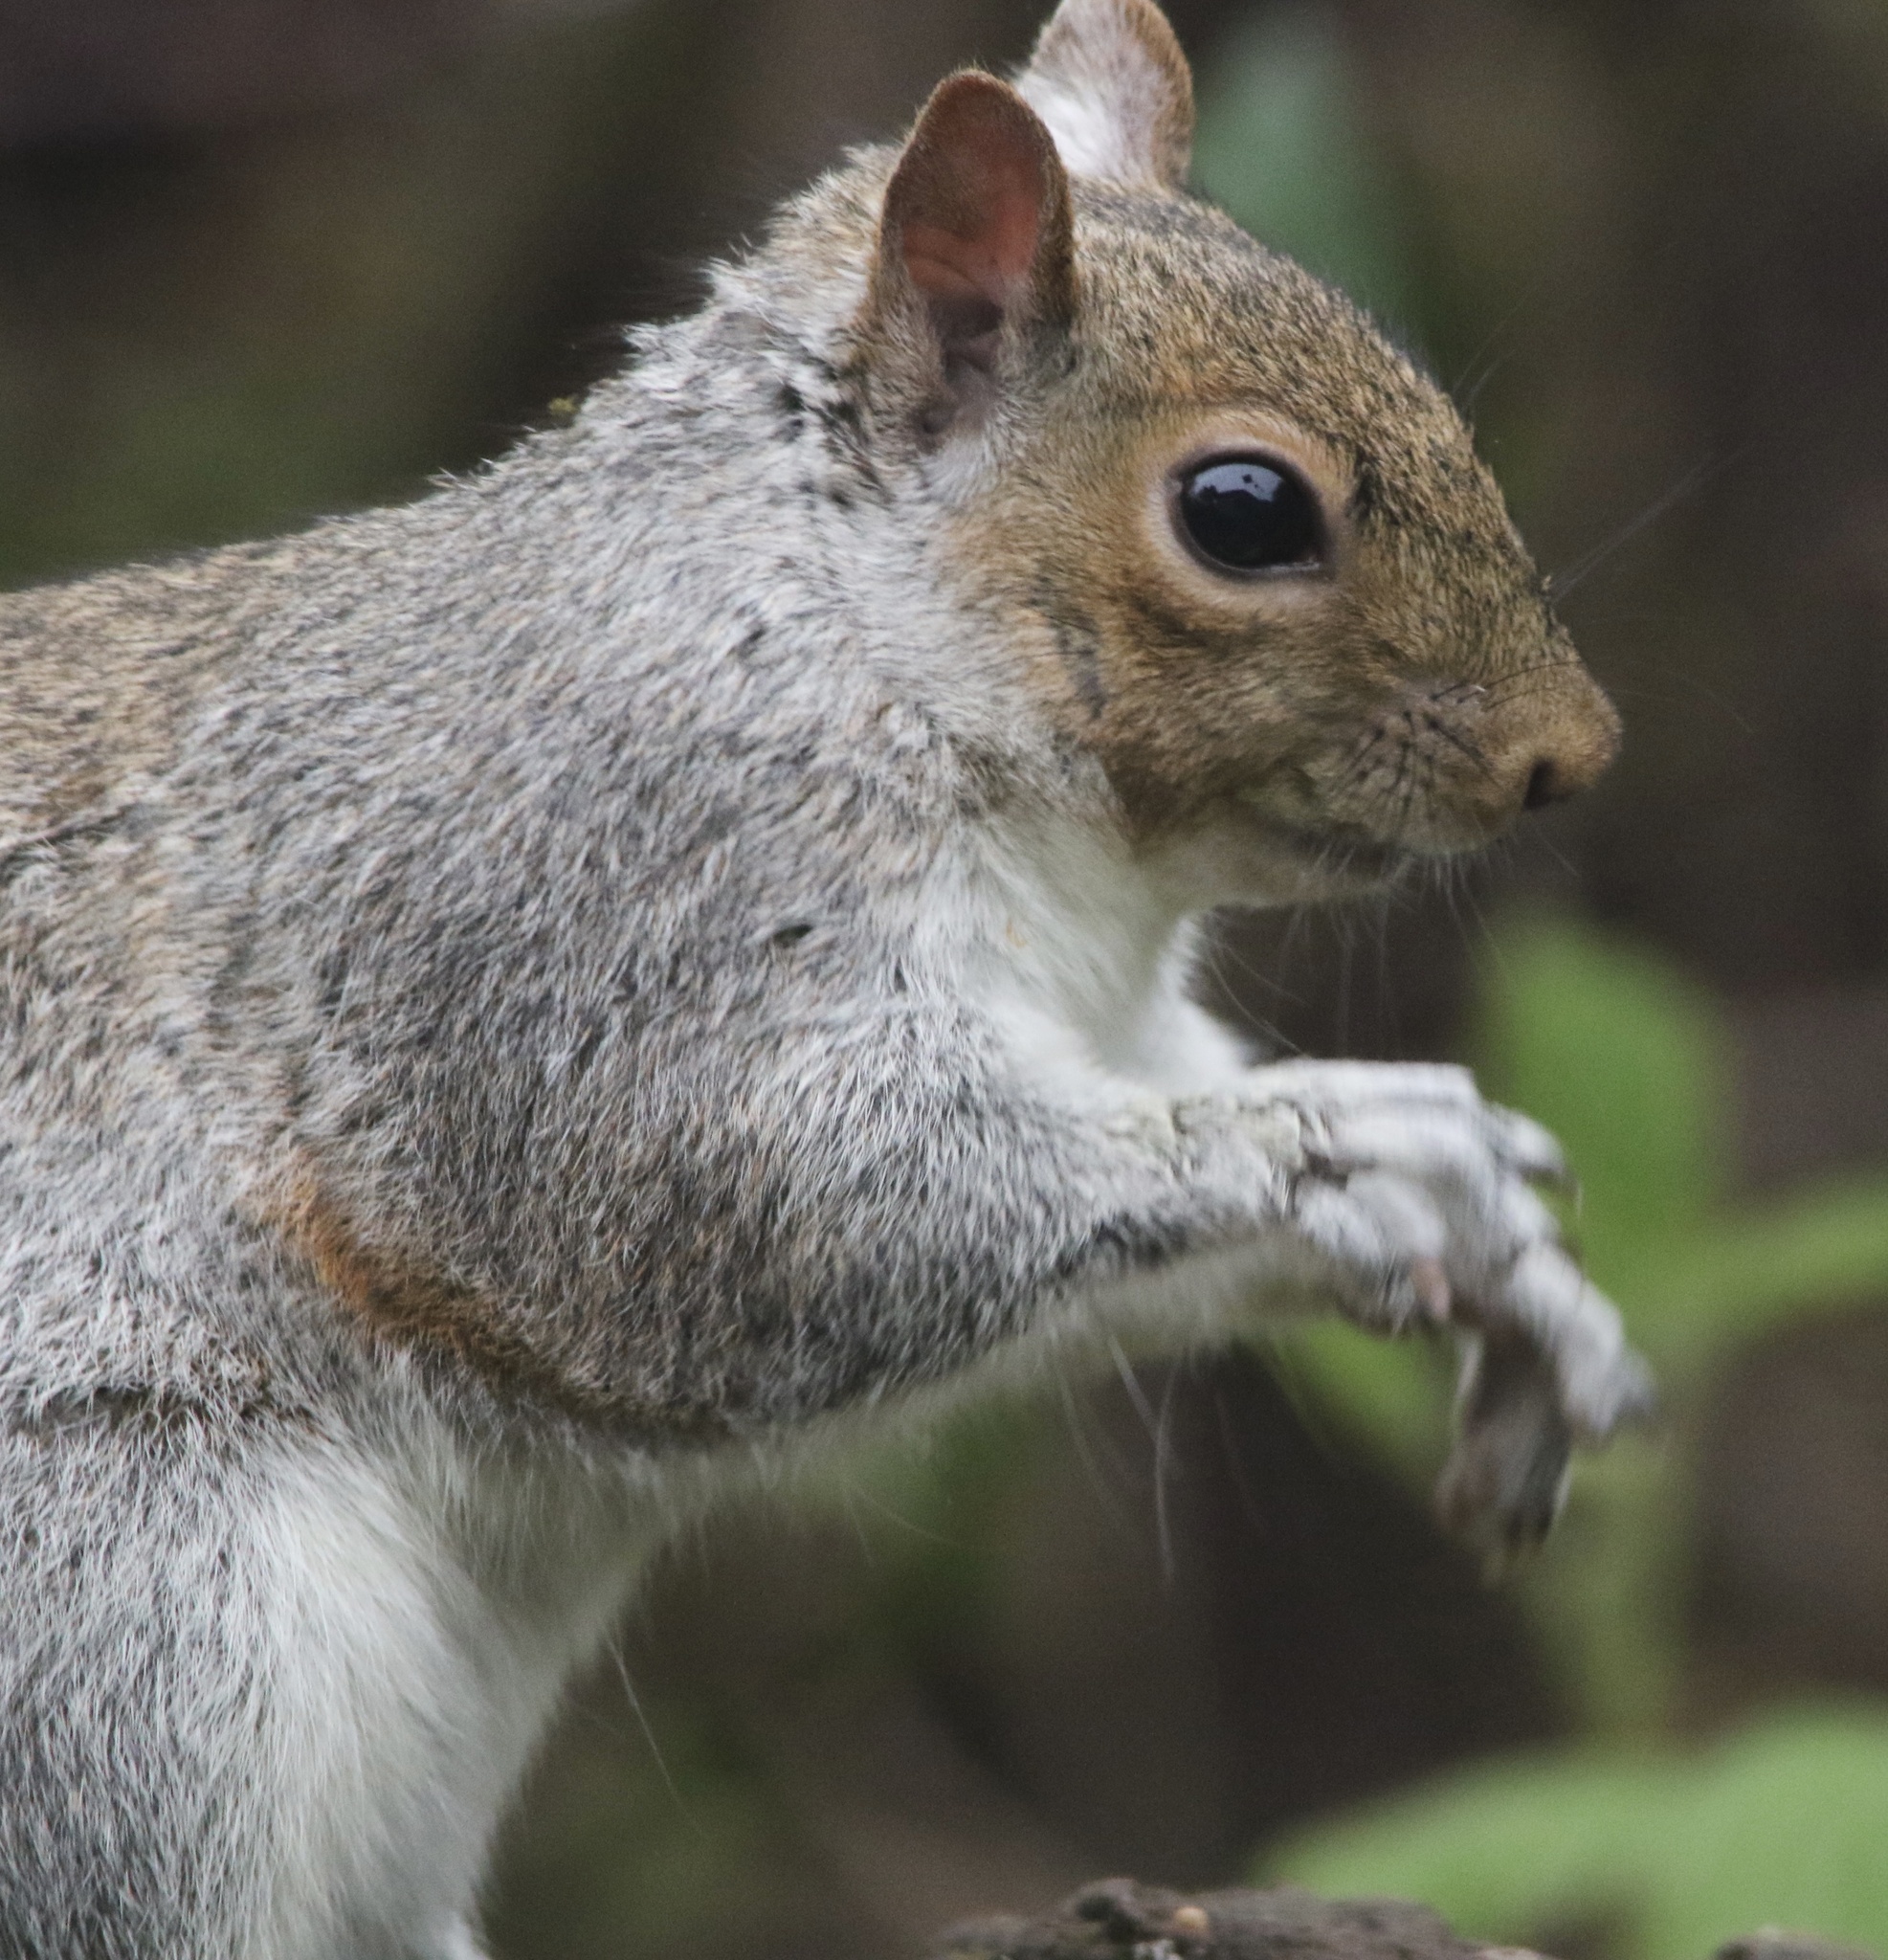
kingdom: Animalia
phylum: Chordata
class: Mammalia
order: Rodentia
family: Sciuridae
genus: Sciurus
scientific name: Sciurus carolinensis
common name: Eastern gray squirrel
